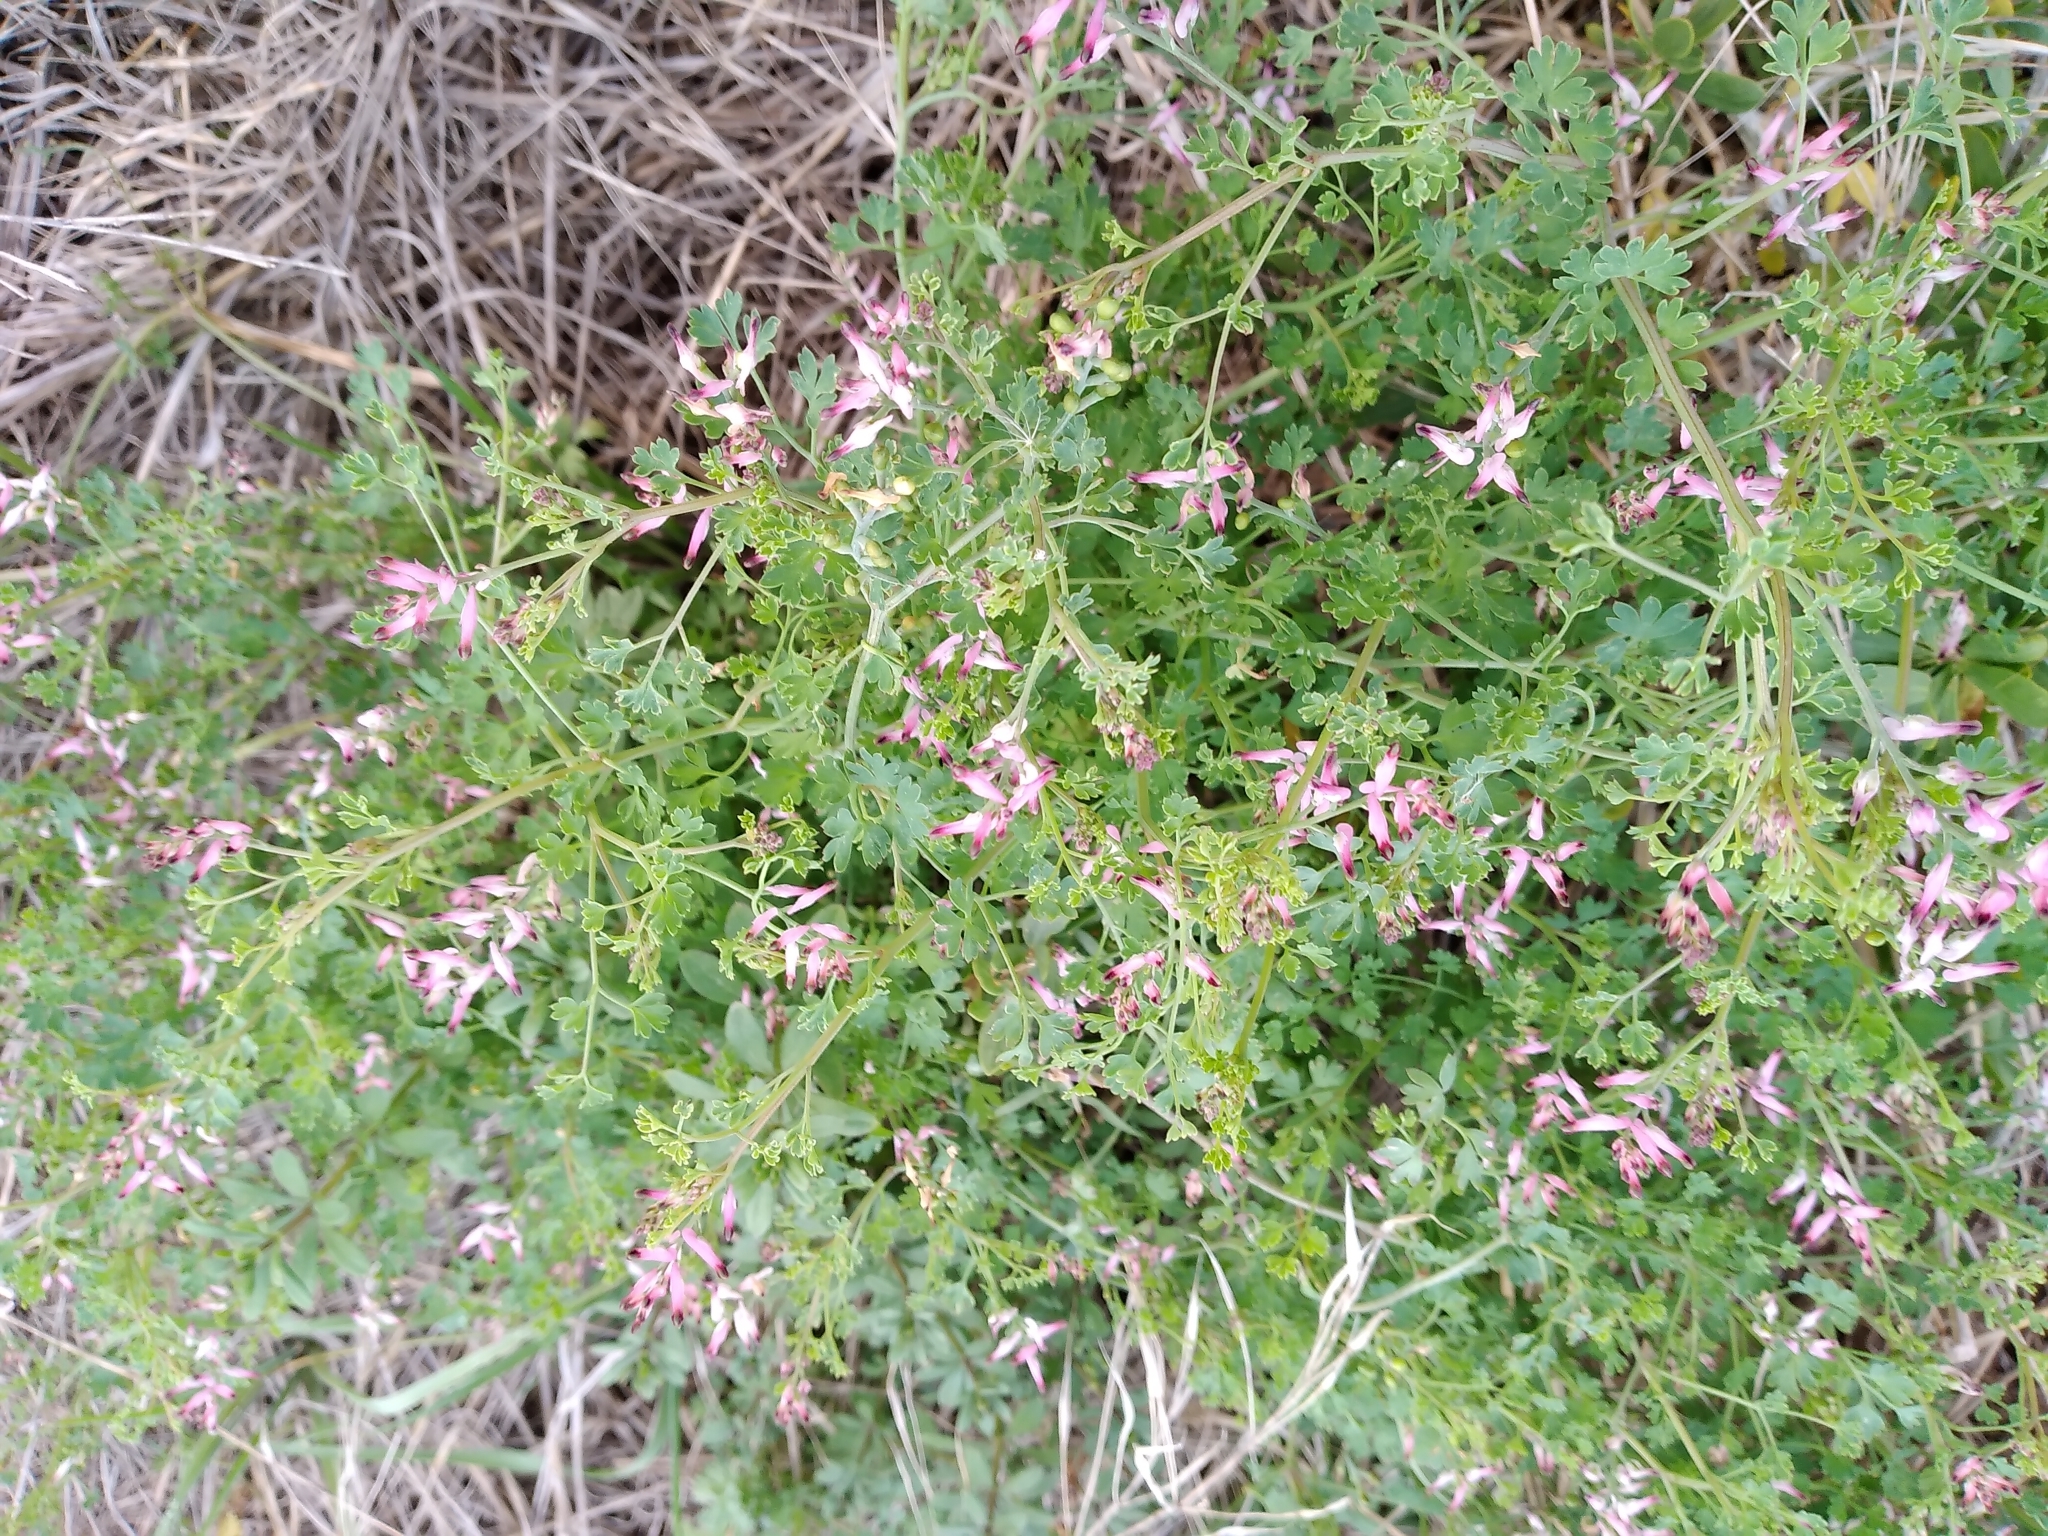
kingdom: Plantae
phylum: Tracheophyta
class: Magnoliopsida
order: Ranunculales
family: Papaveraceae
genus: Fumaria
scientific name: Fumaria bastardii
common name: Tall ramping-fumitory
